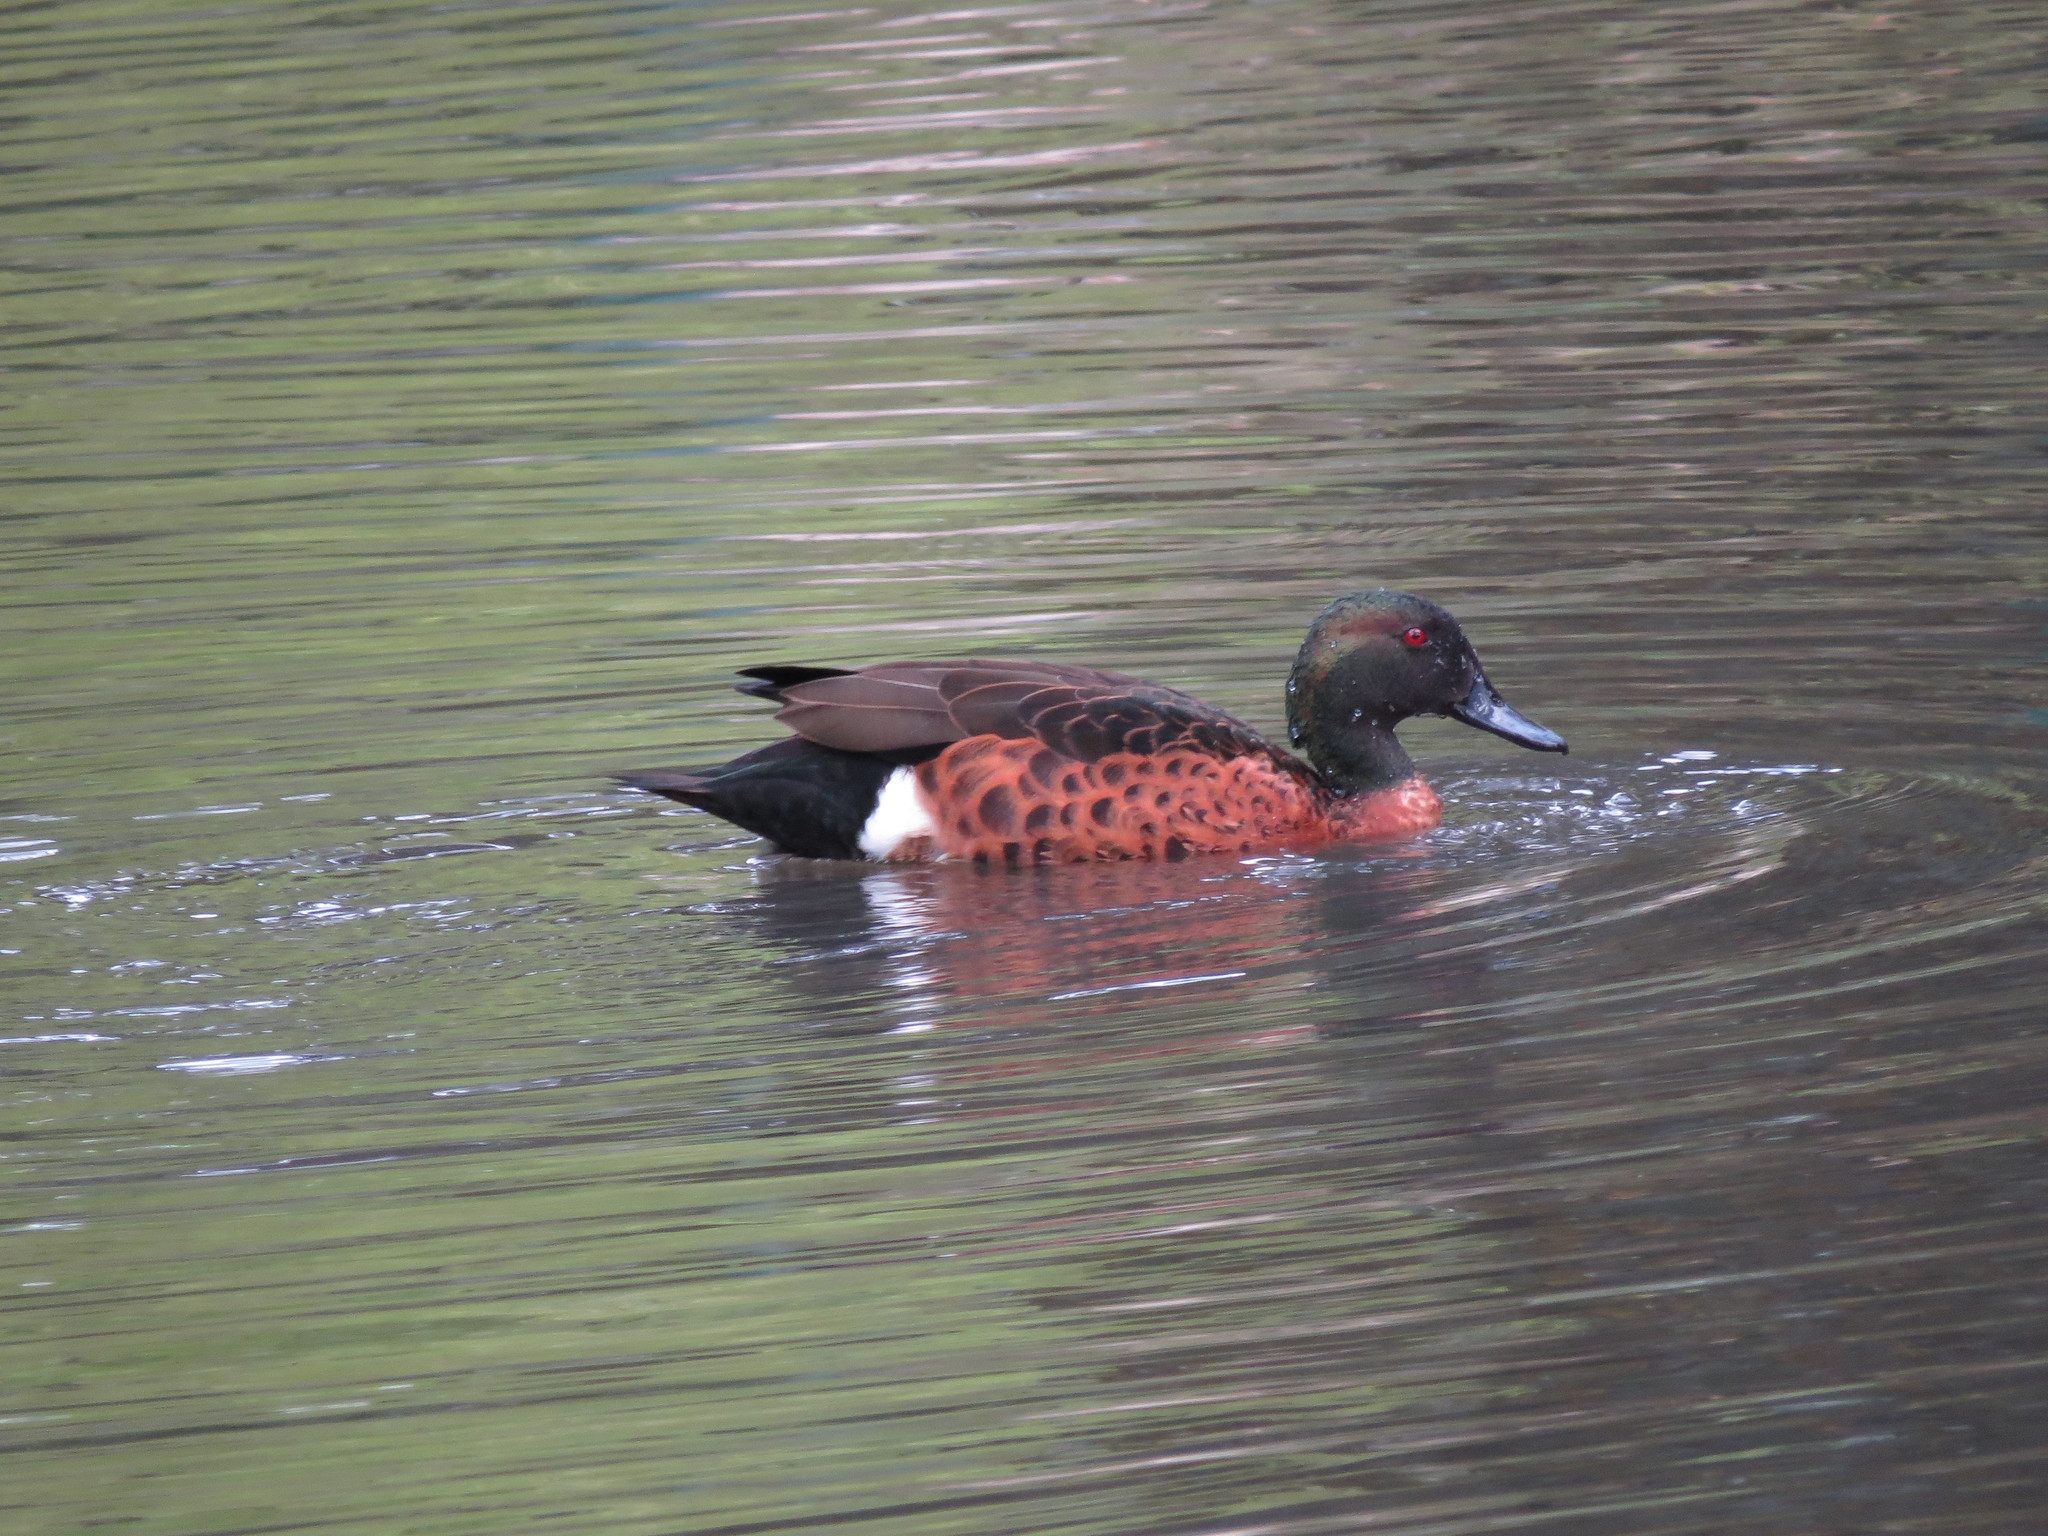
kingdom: Animalia
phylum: Chordata
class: Aves
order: Anseriformes
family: Anatidae
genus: Anas
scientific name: Anas castanea
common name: Chestnut teal
